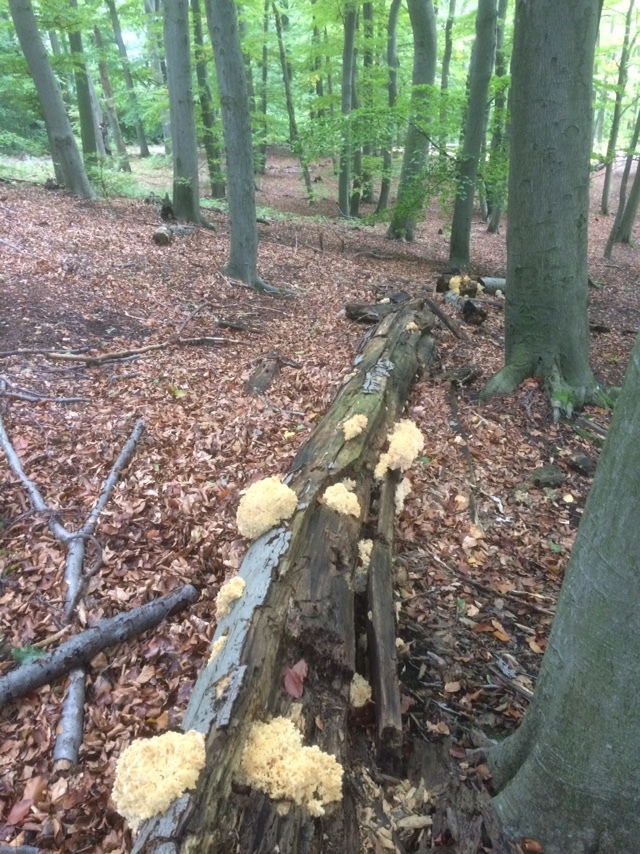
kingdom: Fungi
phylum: Basidiomycota
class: Agaricomycetes
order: Russulales
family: Hericiaceae
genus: Hericium
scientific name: Hericium coralloides
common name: Coral tooth
